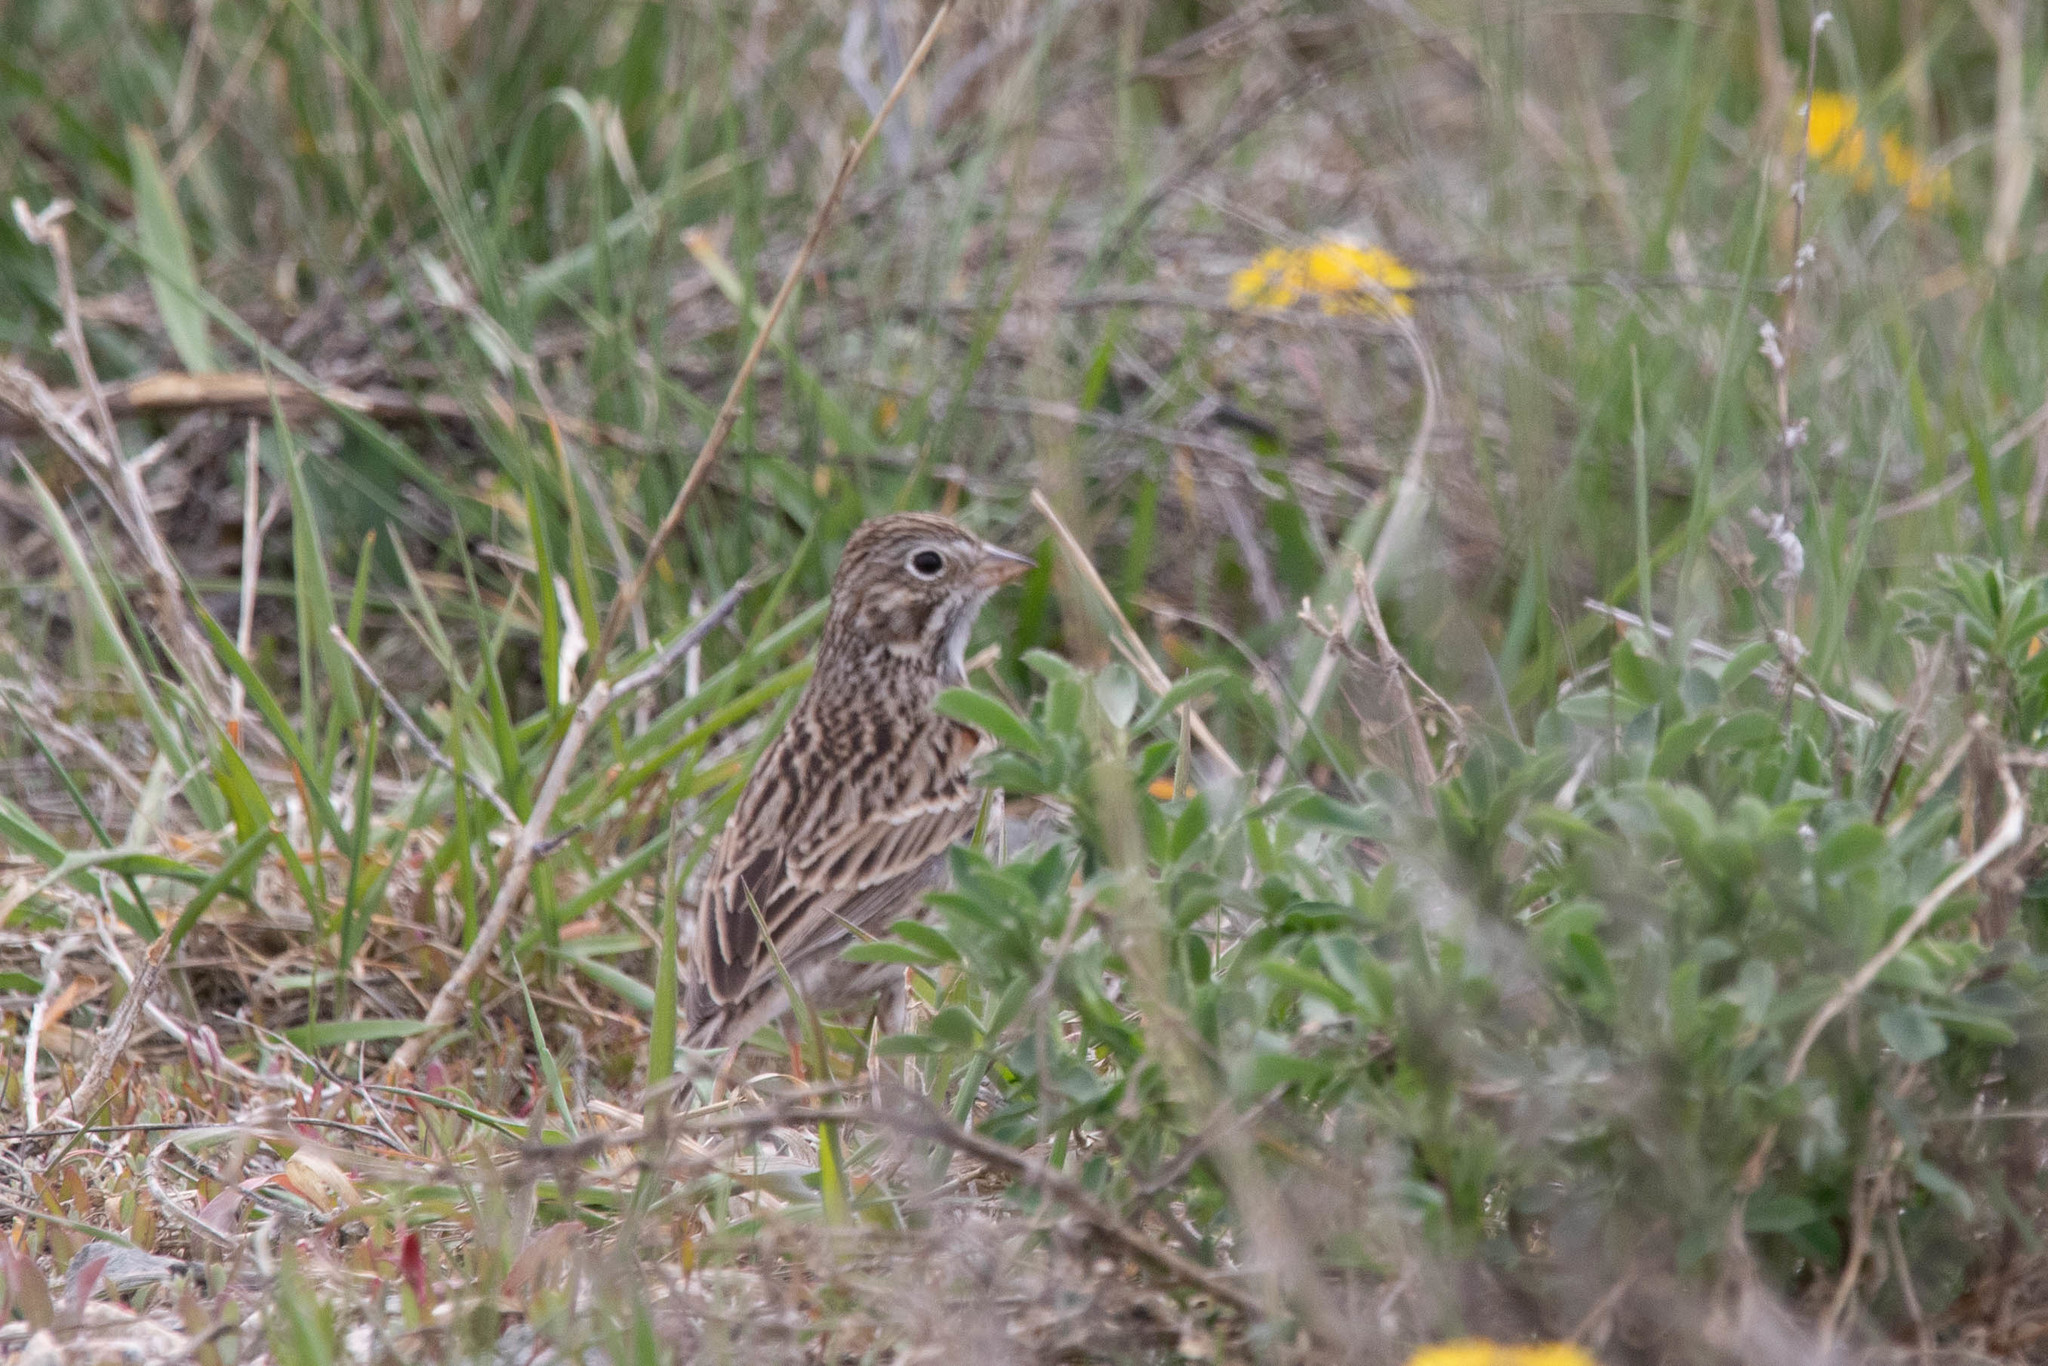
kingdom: Animalia
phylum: Chordata
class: Aves
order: Passeriformes
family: Passerellidae
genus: Pooecetes
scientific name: Pooecetes gramineus
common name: Vesper sparrow
